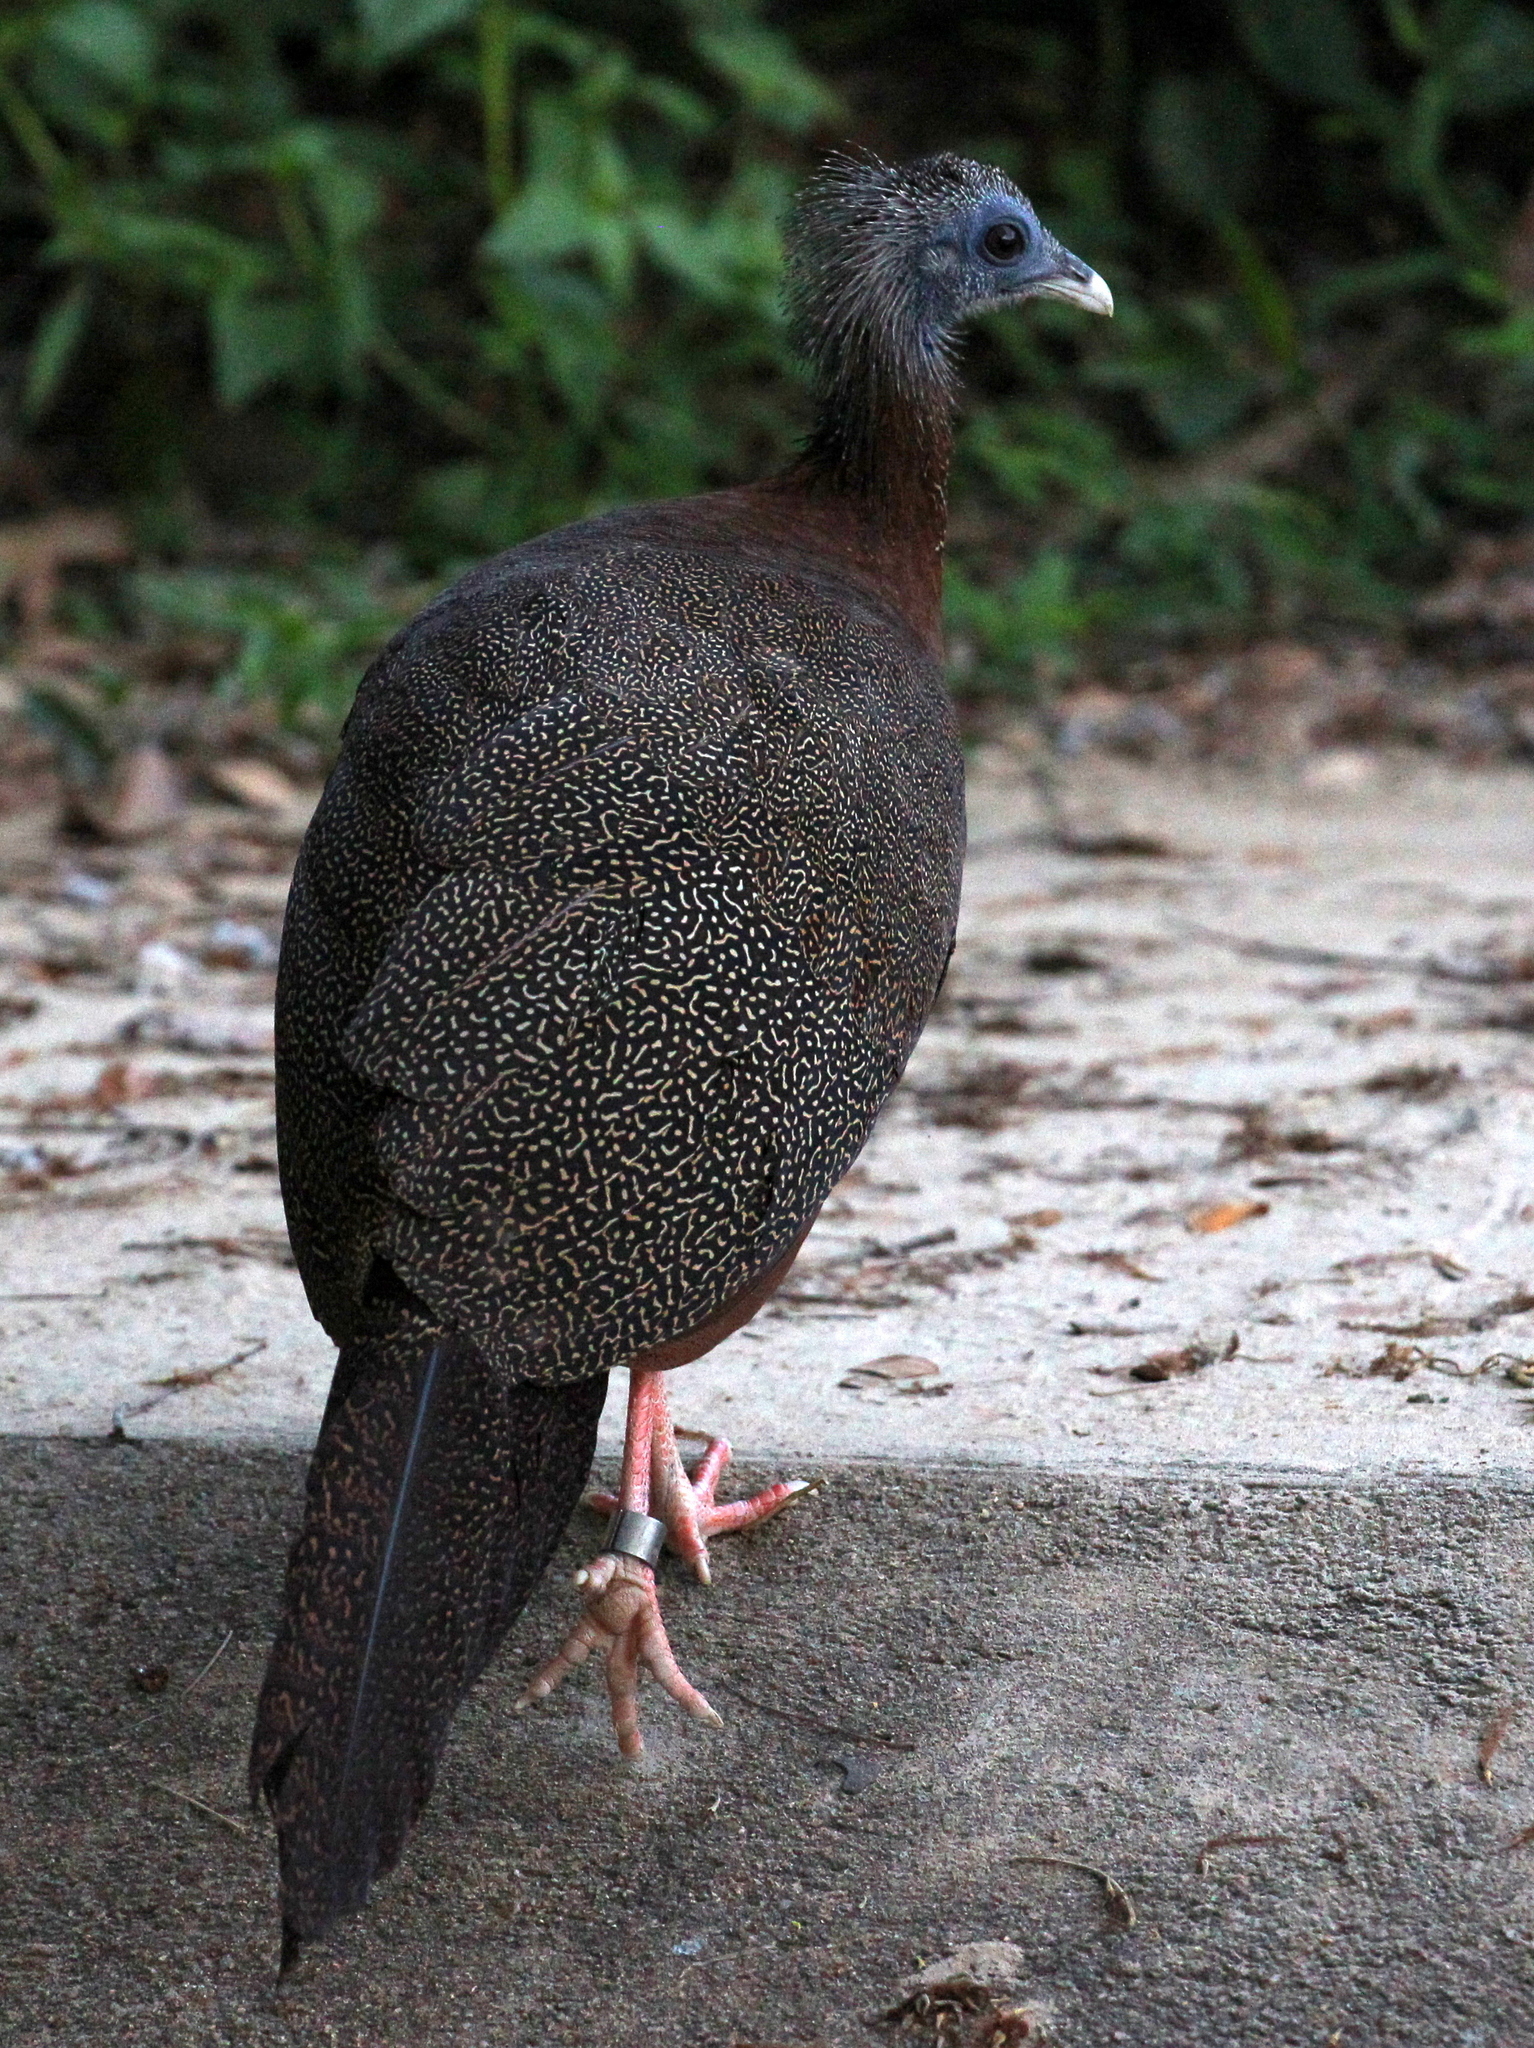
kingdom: Animalia
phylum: Chordata
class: Aves
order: Galliformes
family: Phasianidae
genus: Argusianus
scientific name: Argusianus argus
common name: Great argus
